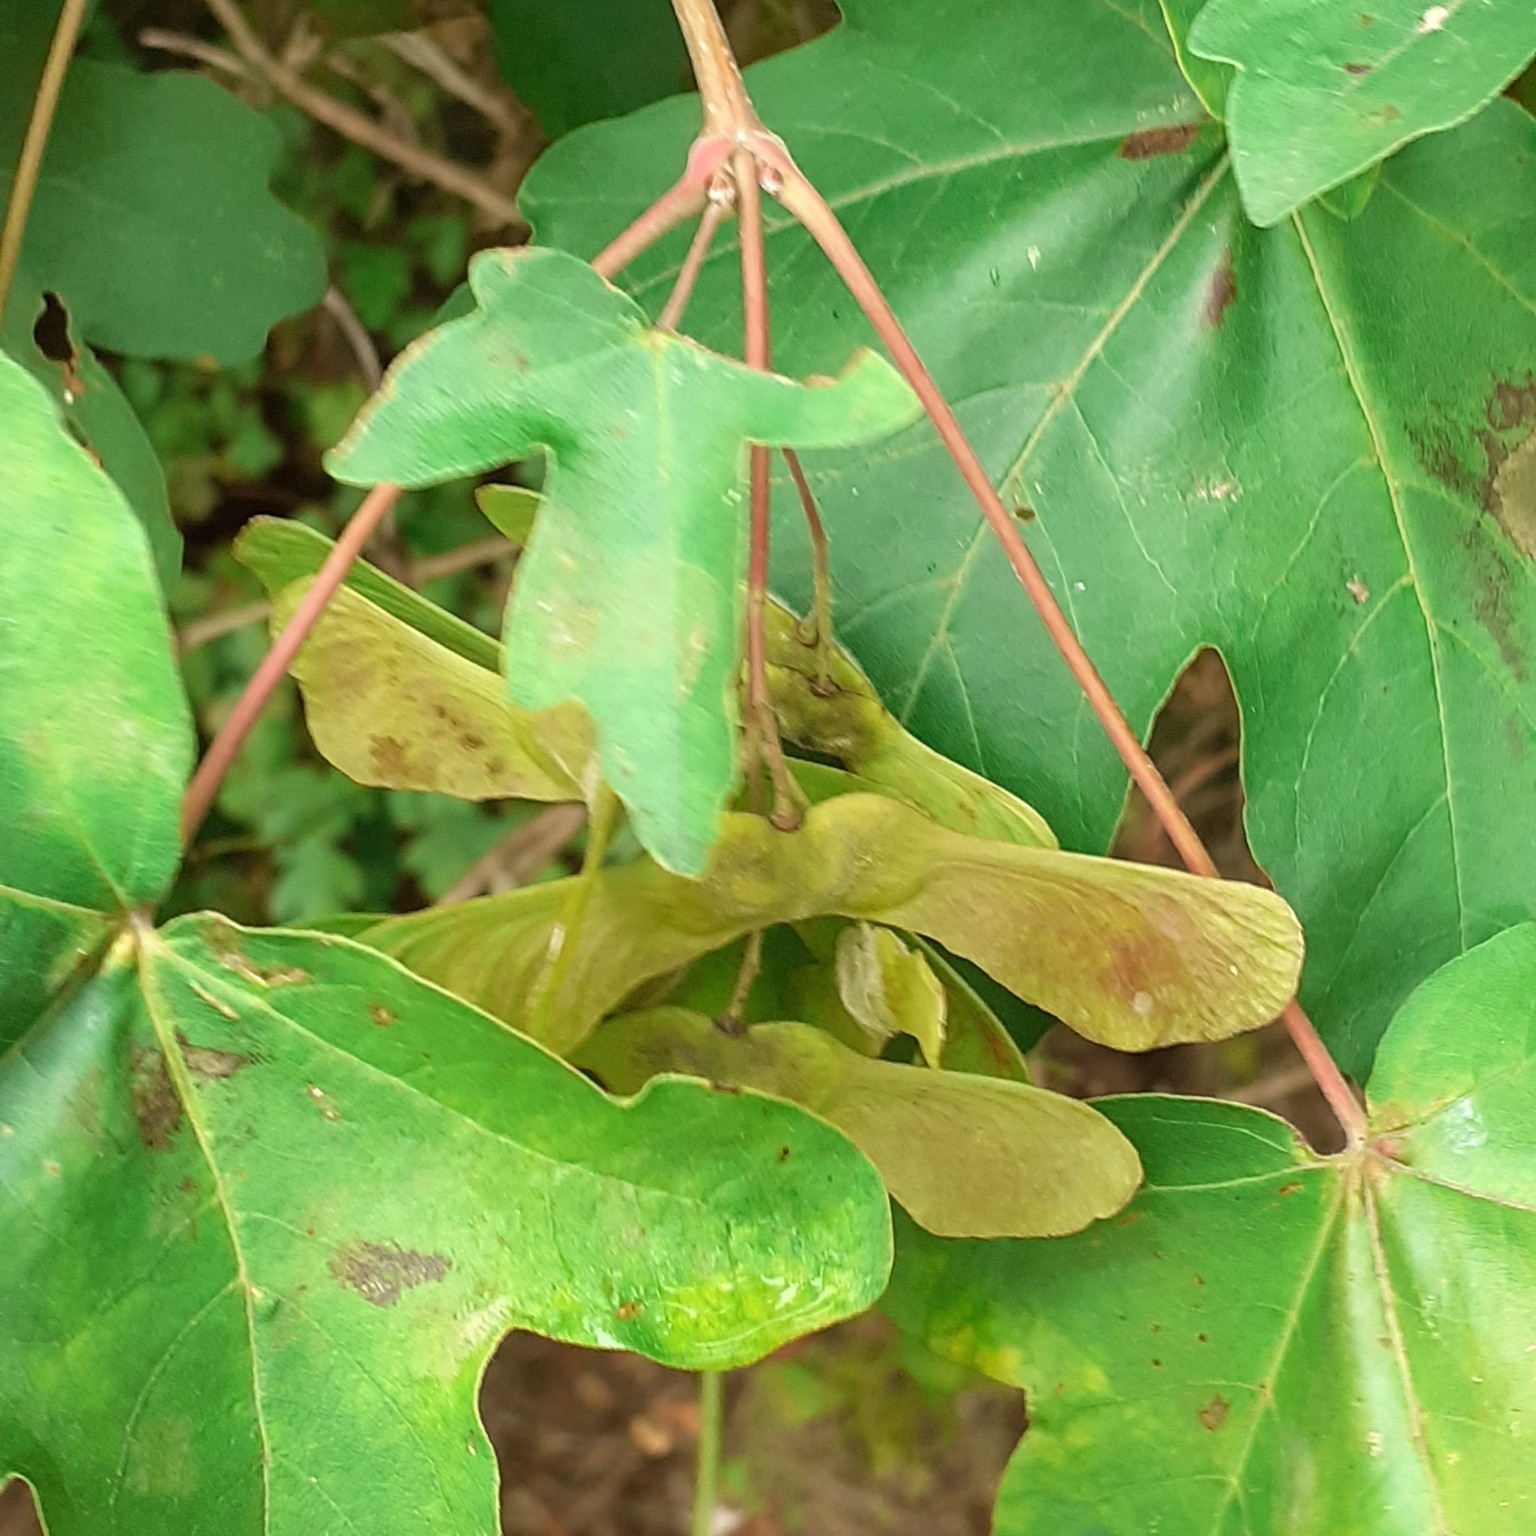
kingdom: Plantae
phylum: Tracheophyta
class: Magnoliopsida
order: Sapindales
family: Sapindaceae
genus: Acer
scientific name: Acer campestre
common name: Field maple
